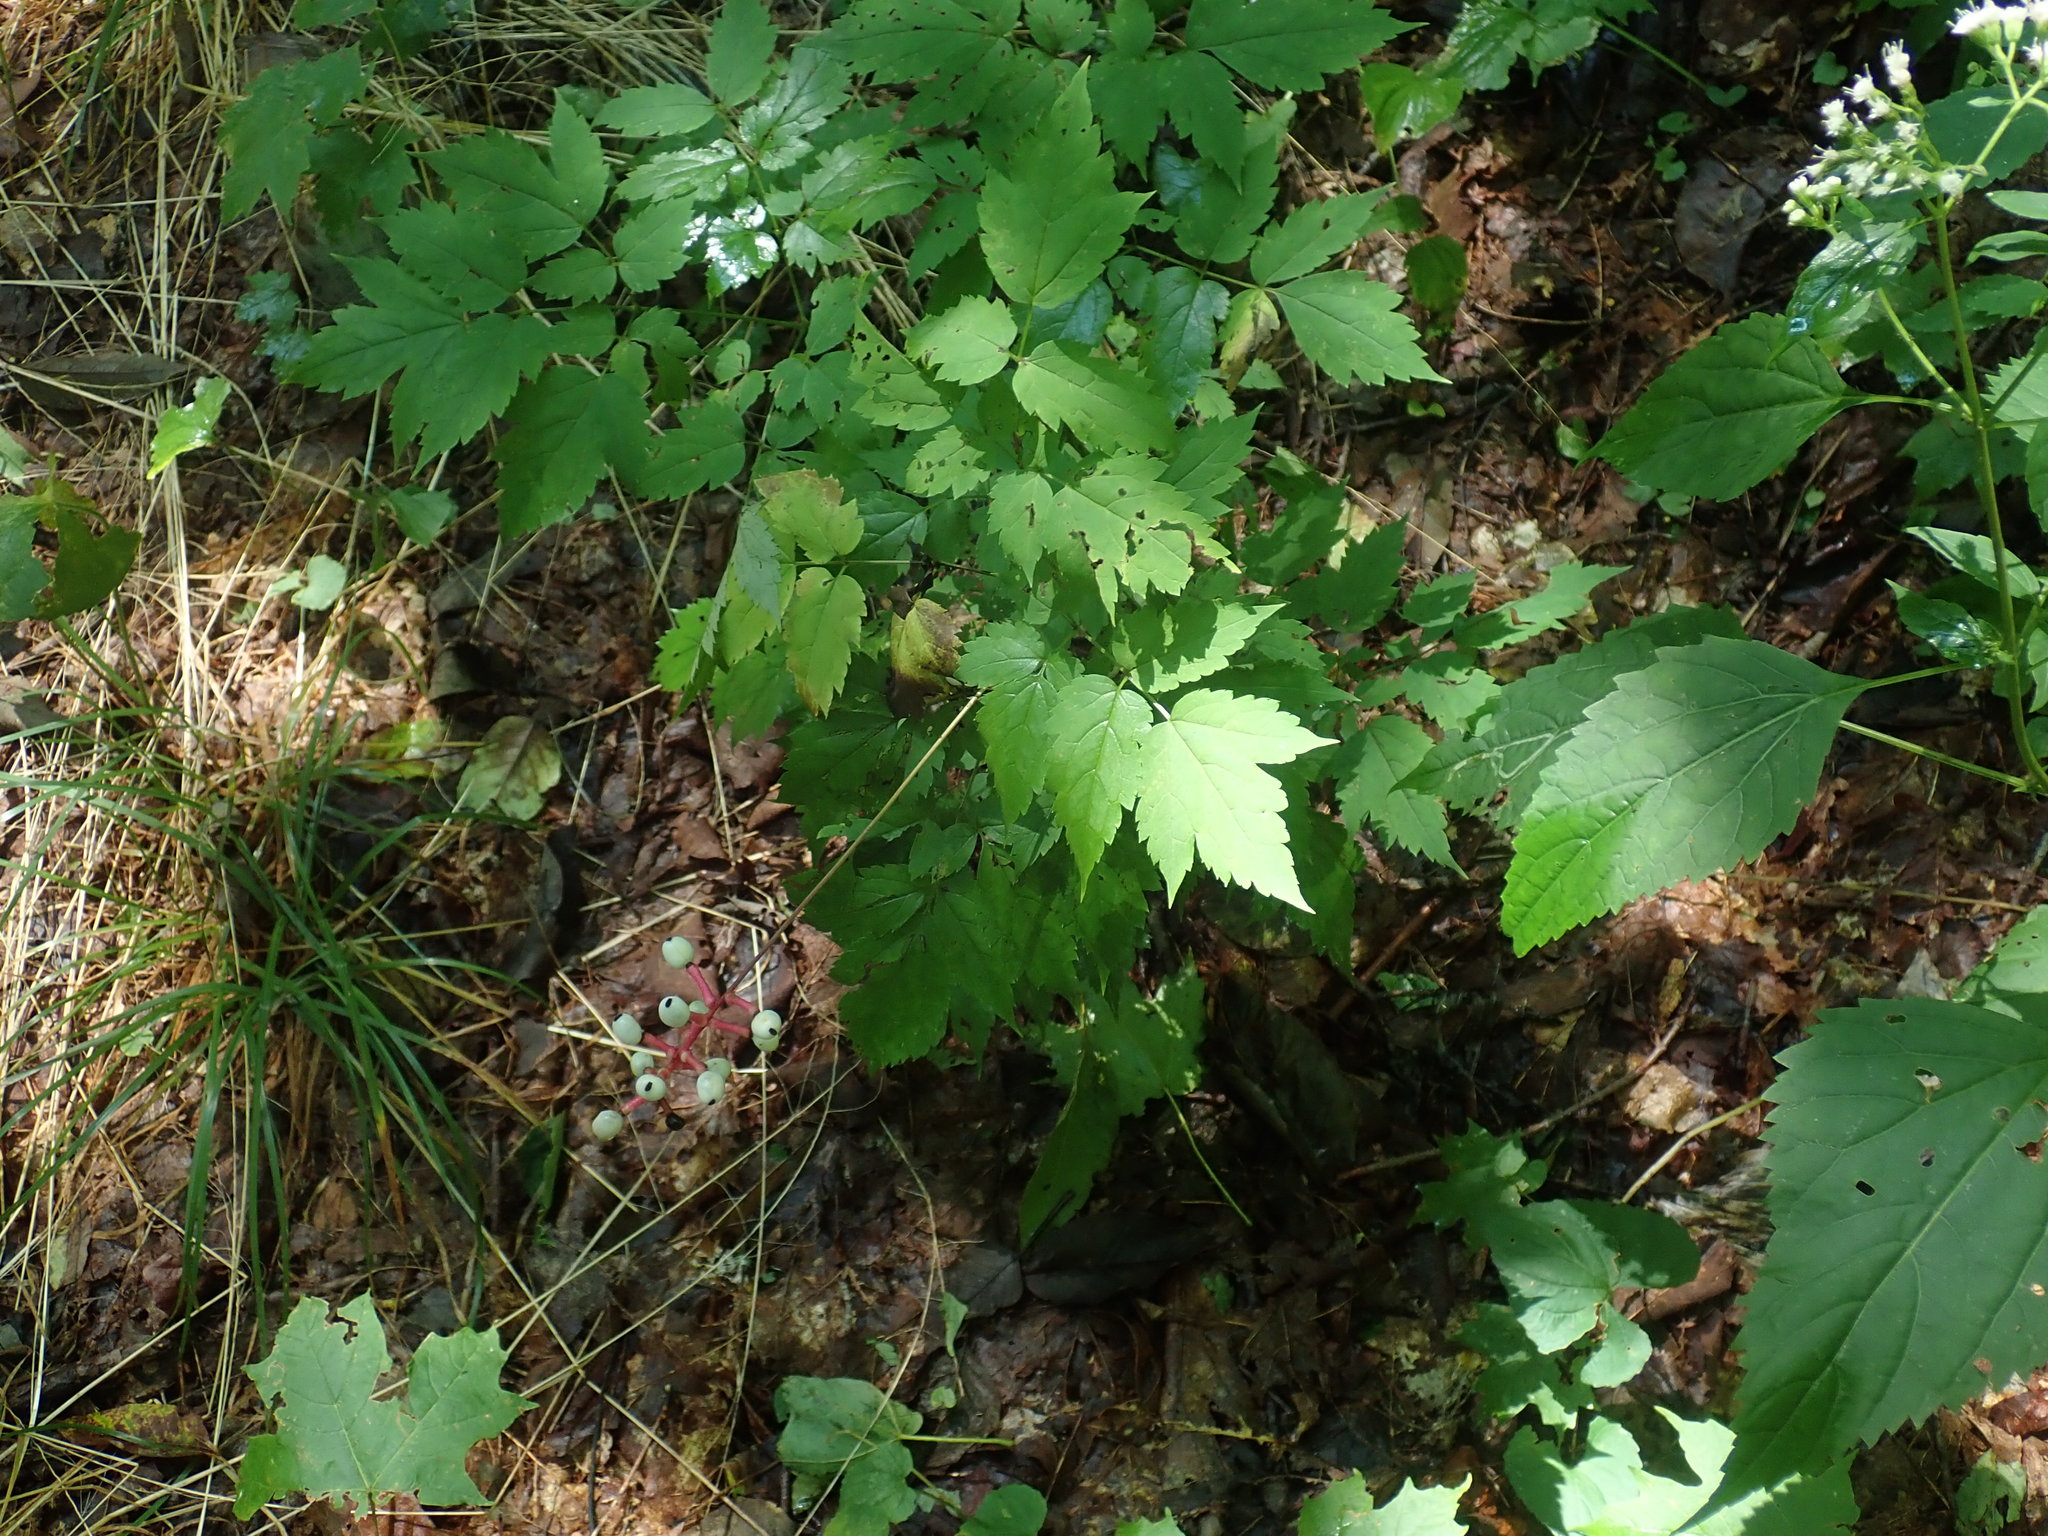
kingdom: Plantae
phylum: Tracheophyta
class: Magnoliopsida
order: Ranunculales
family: Ranunculaceae
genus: Actaea
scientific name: Actaea pachypoda
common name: Doll's-eyes
